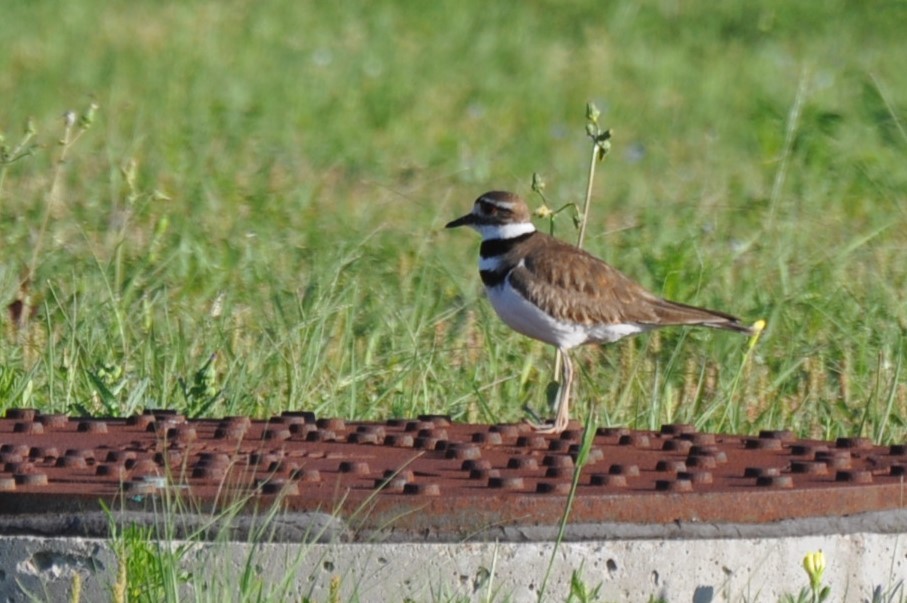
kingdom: Animalia
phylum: Chordata
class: Aves
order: Charadriiformes
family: Charadriidae
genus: Charadrius
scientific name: Charadrius vociferus
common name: Killdeer
